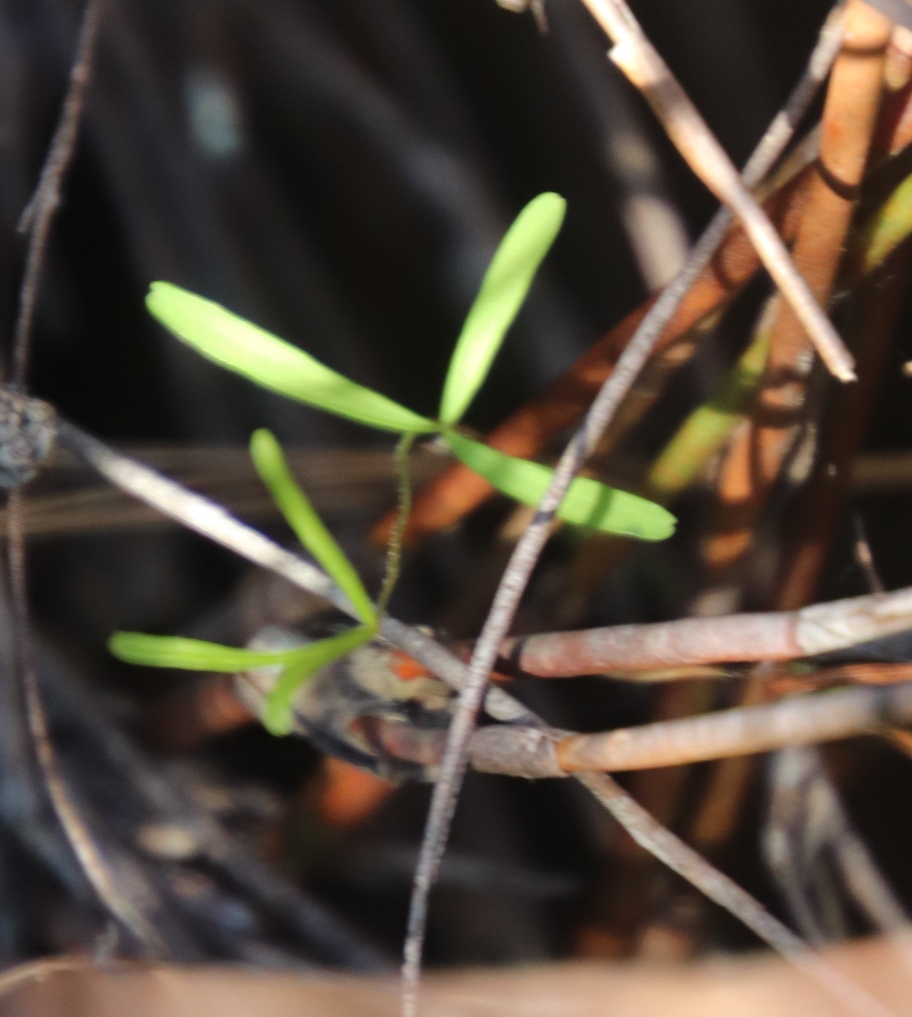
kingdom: Plantae
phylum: Tracheophyta
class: Magnoliopsida
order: Oxalidales
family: Oxalidaceae
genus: Oxalis
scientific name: Oxalis polyphylla
